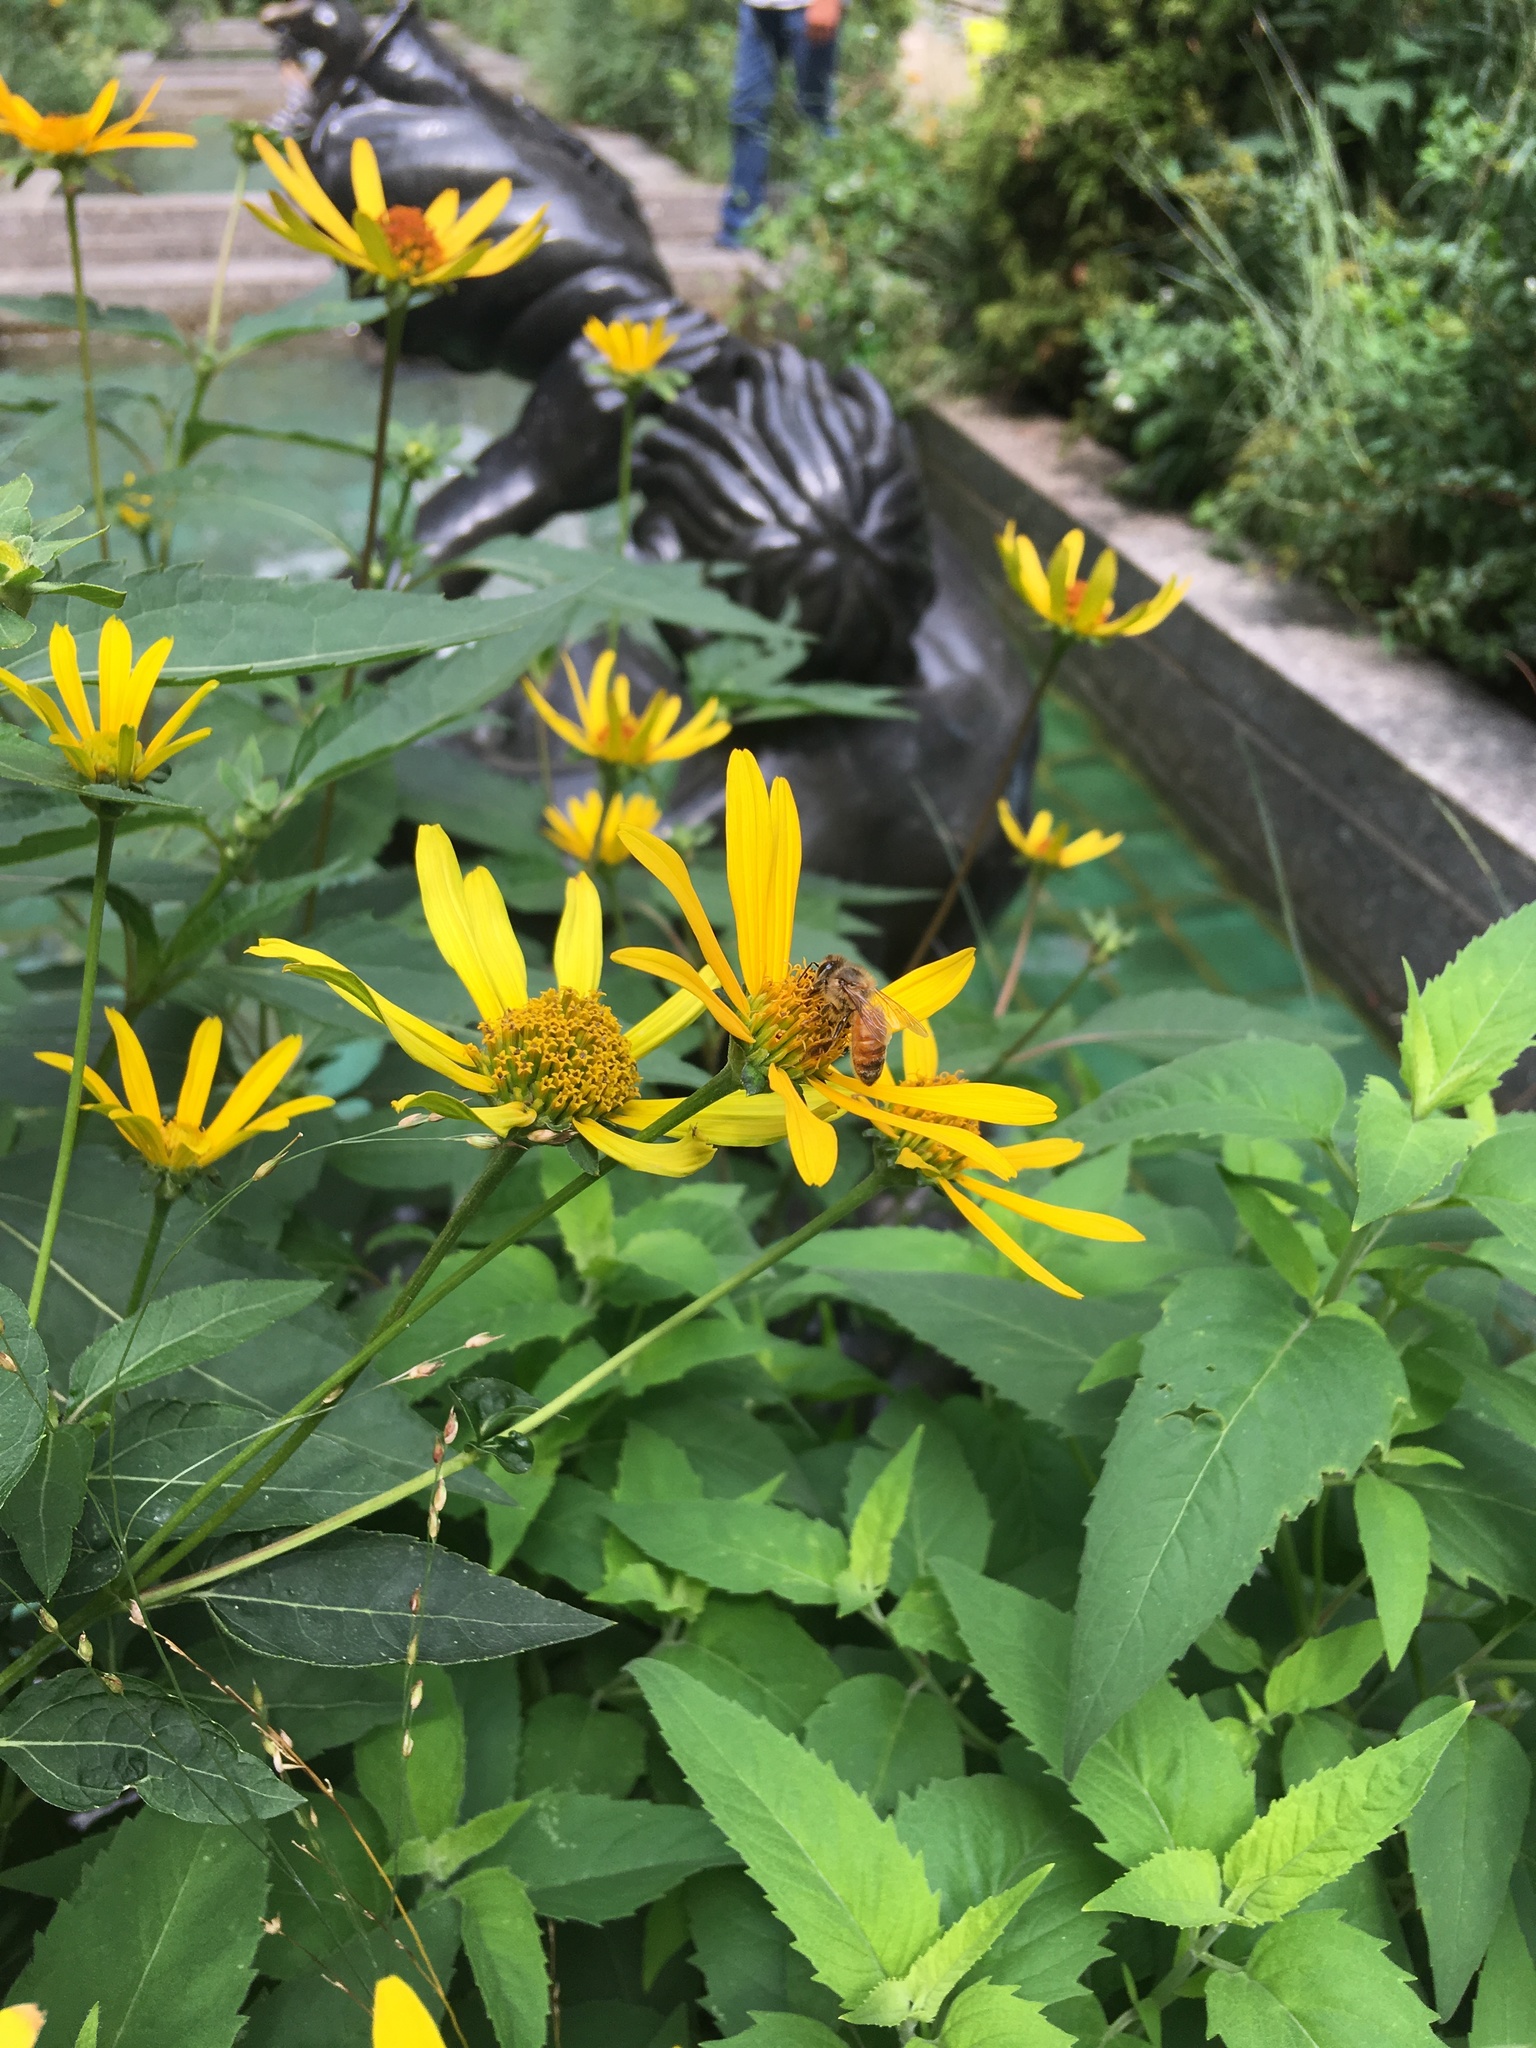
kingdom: Animalia
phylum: Arthropoda
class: Insecta
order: Hymenoptera
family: Apidae
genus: Apis
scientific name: Apis mellifera
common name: Honey bee
